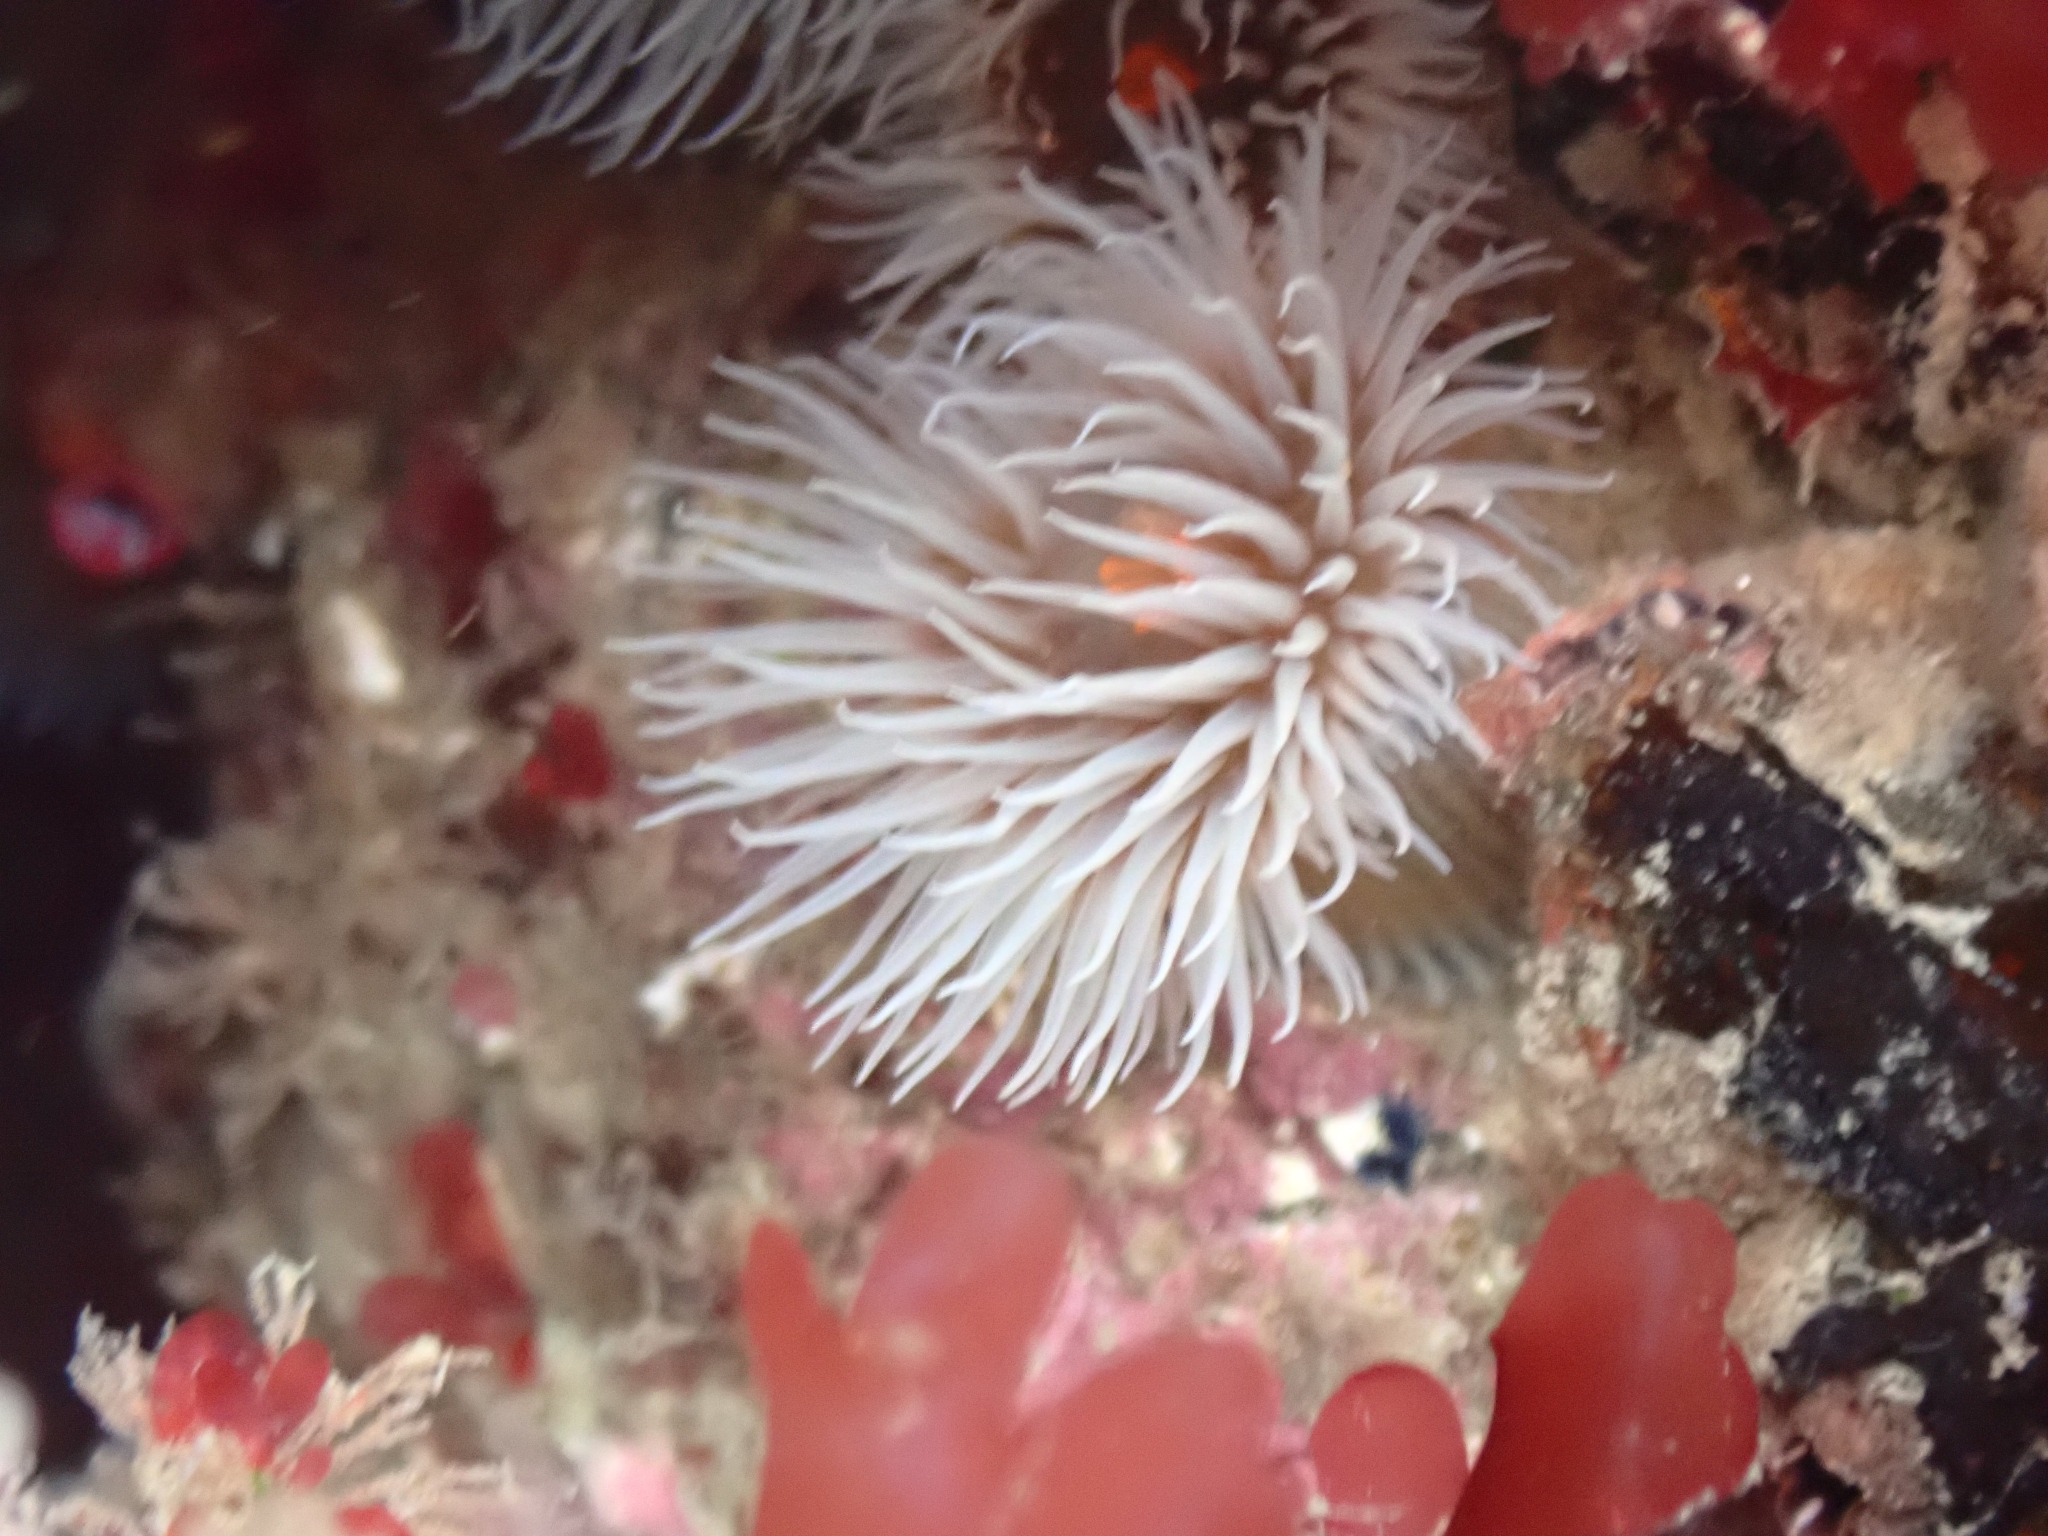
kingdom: Animalia
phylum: Cnidaria
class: Anthozoa
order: Actiniaria
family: Diadumenidae
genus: Diadumene
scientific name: Diadumene neozelanica
